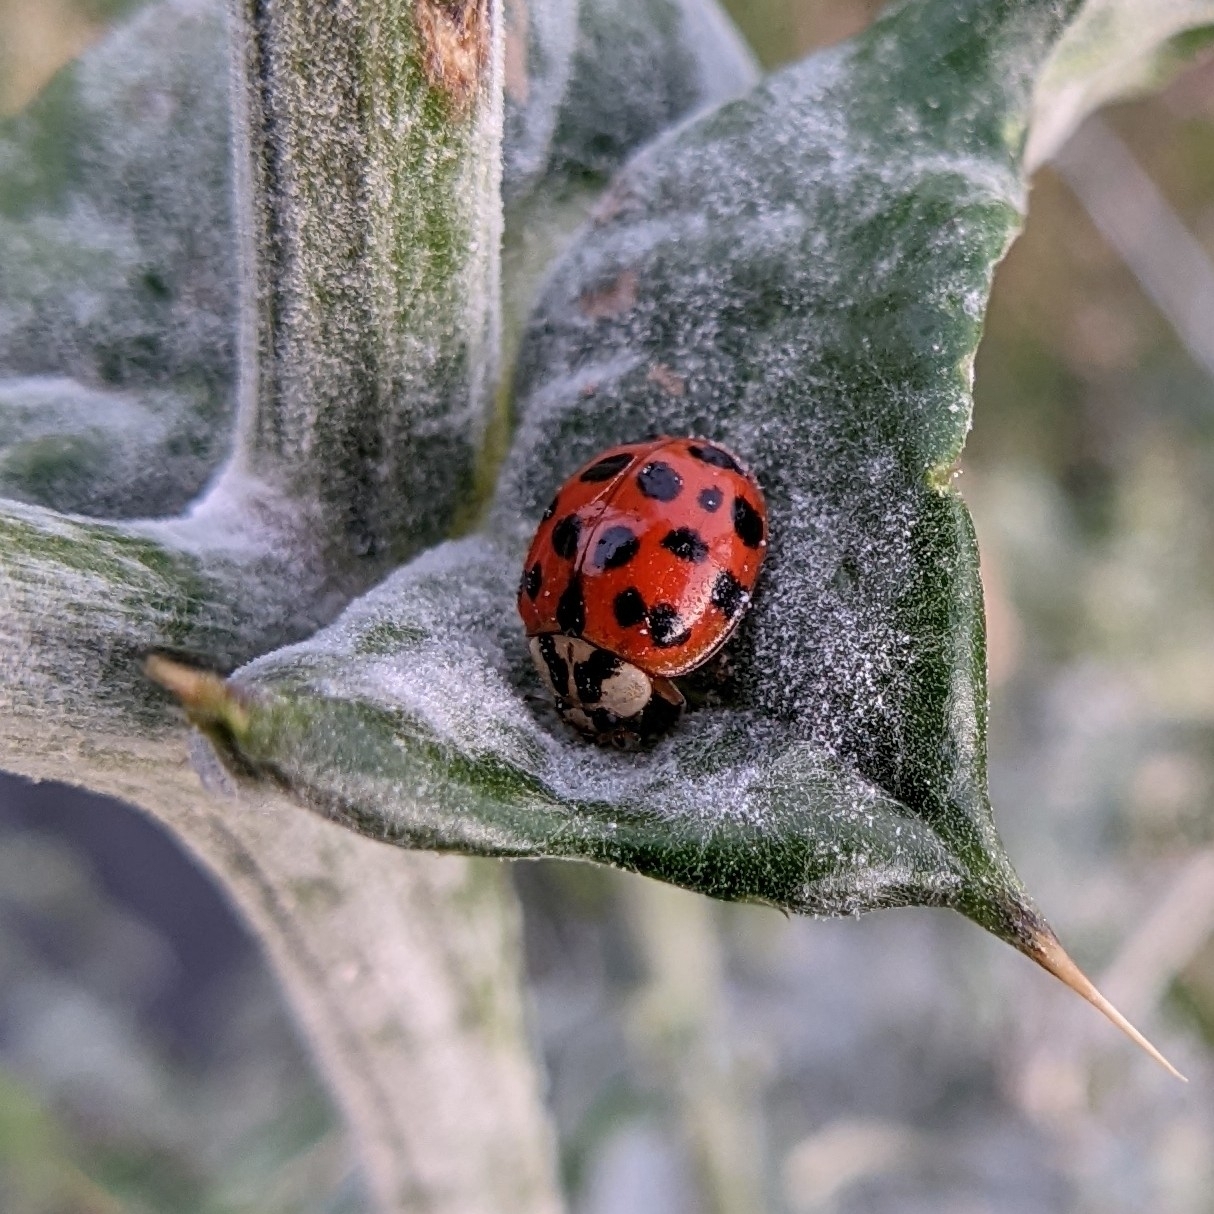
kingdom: Animalia
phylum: Arthropoda
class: Insecta
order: Coleoptera
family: Coccinellidae
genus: Harmonia
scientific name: Harmonia axyridis
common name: Harlequin ladybird
